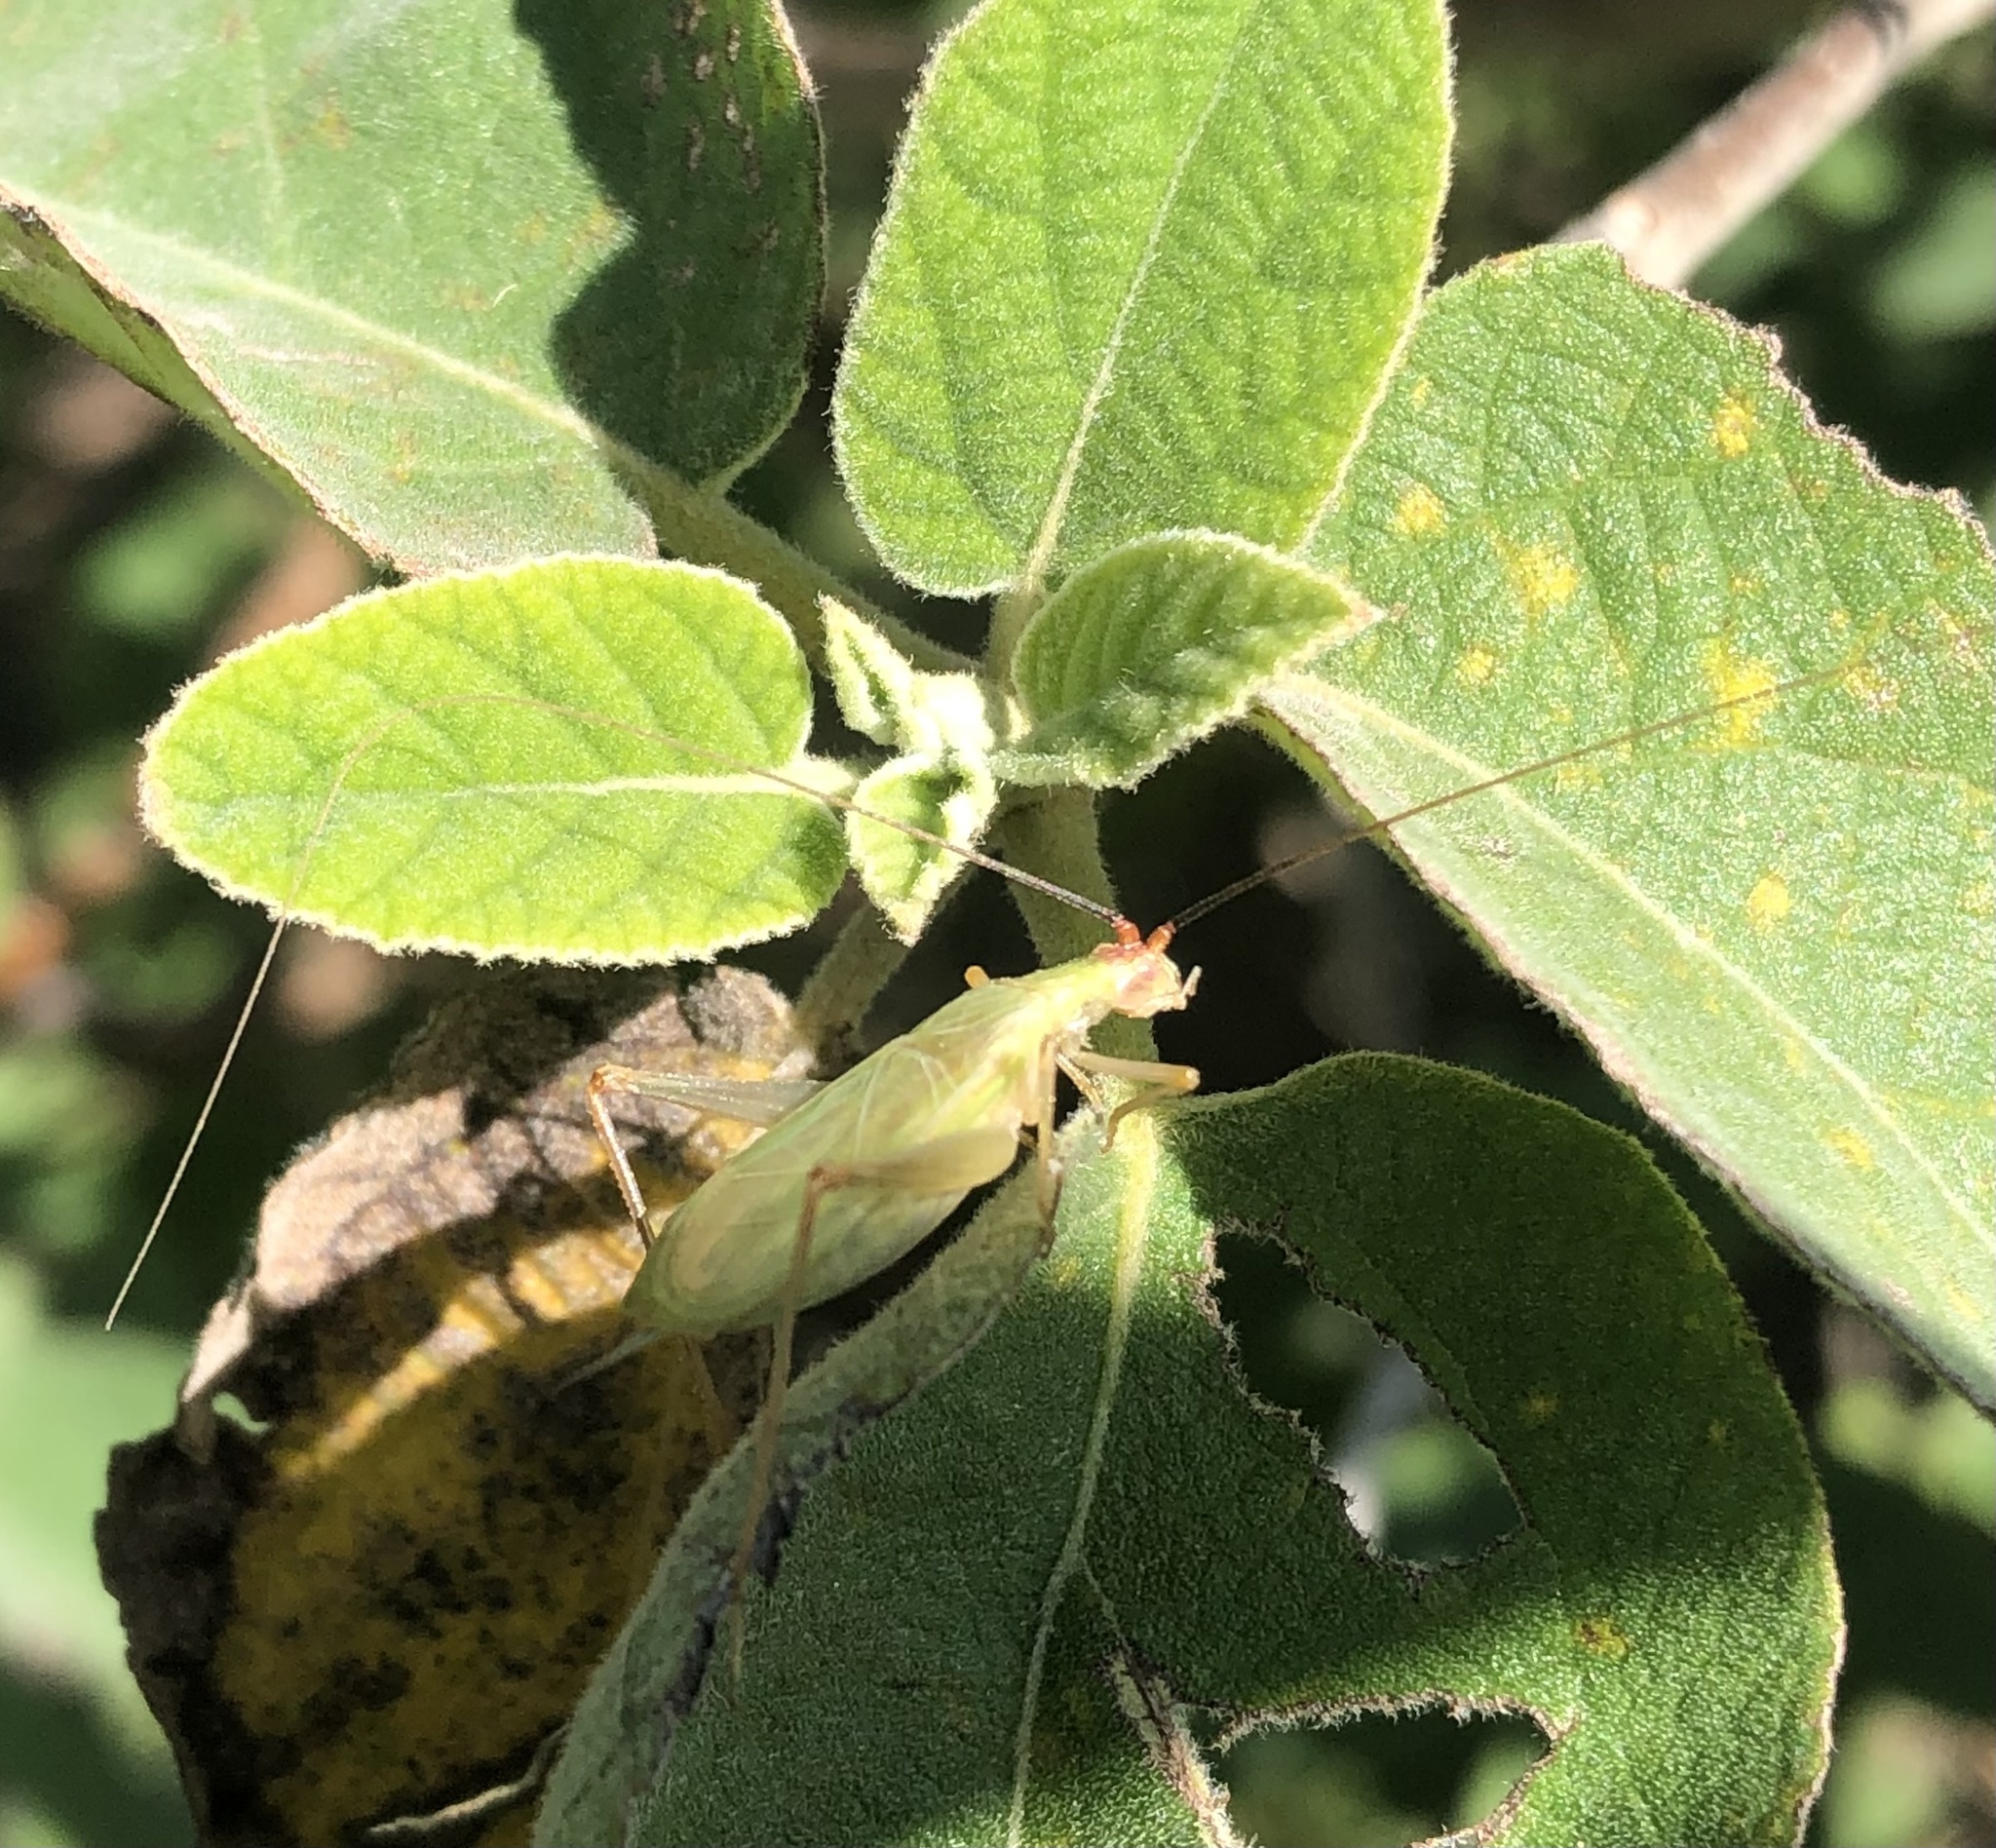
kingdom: Animalia
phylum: Arthropoda
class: Insecta
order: Orthoptera
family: Gryllidae
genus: Oecanthus
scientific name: Oecanthus californicus
